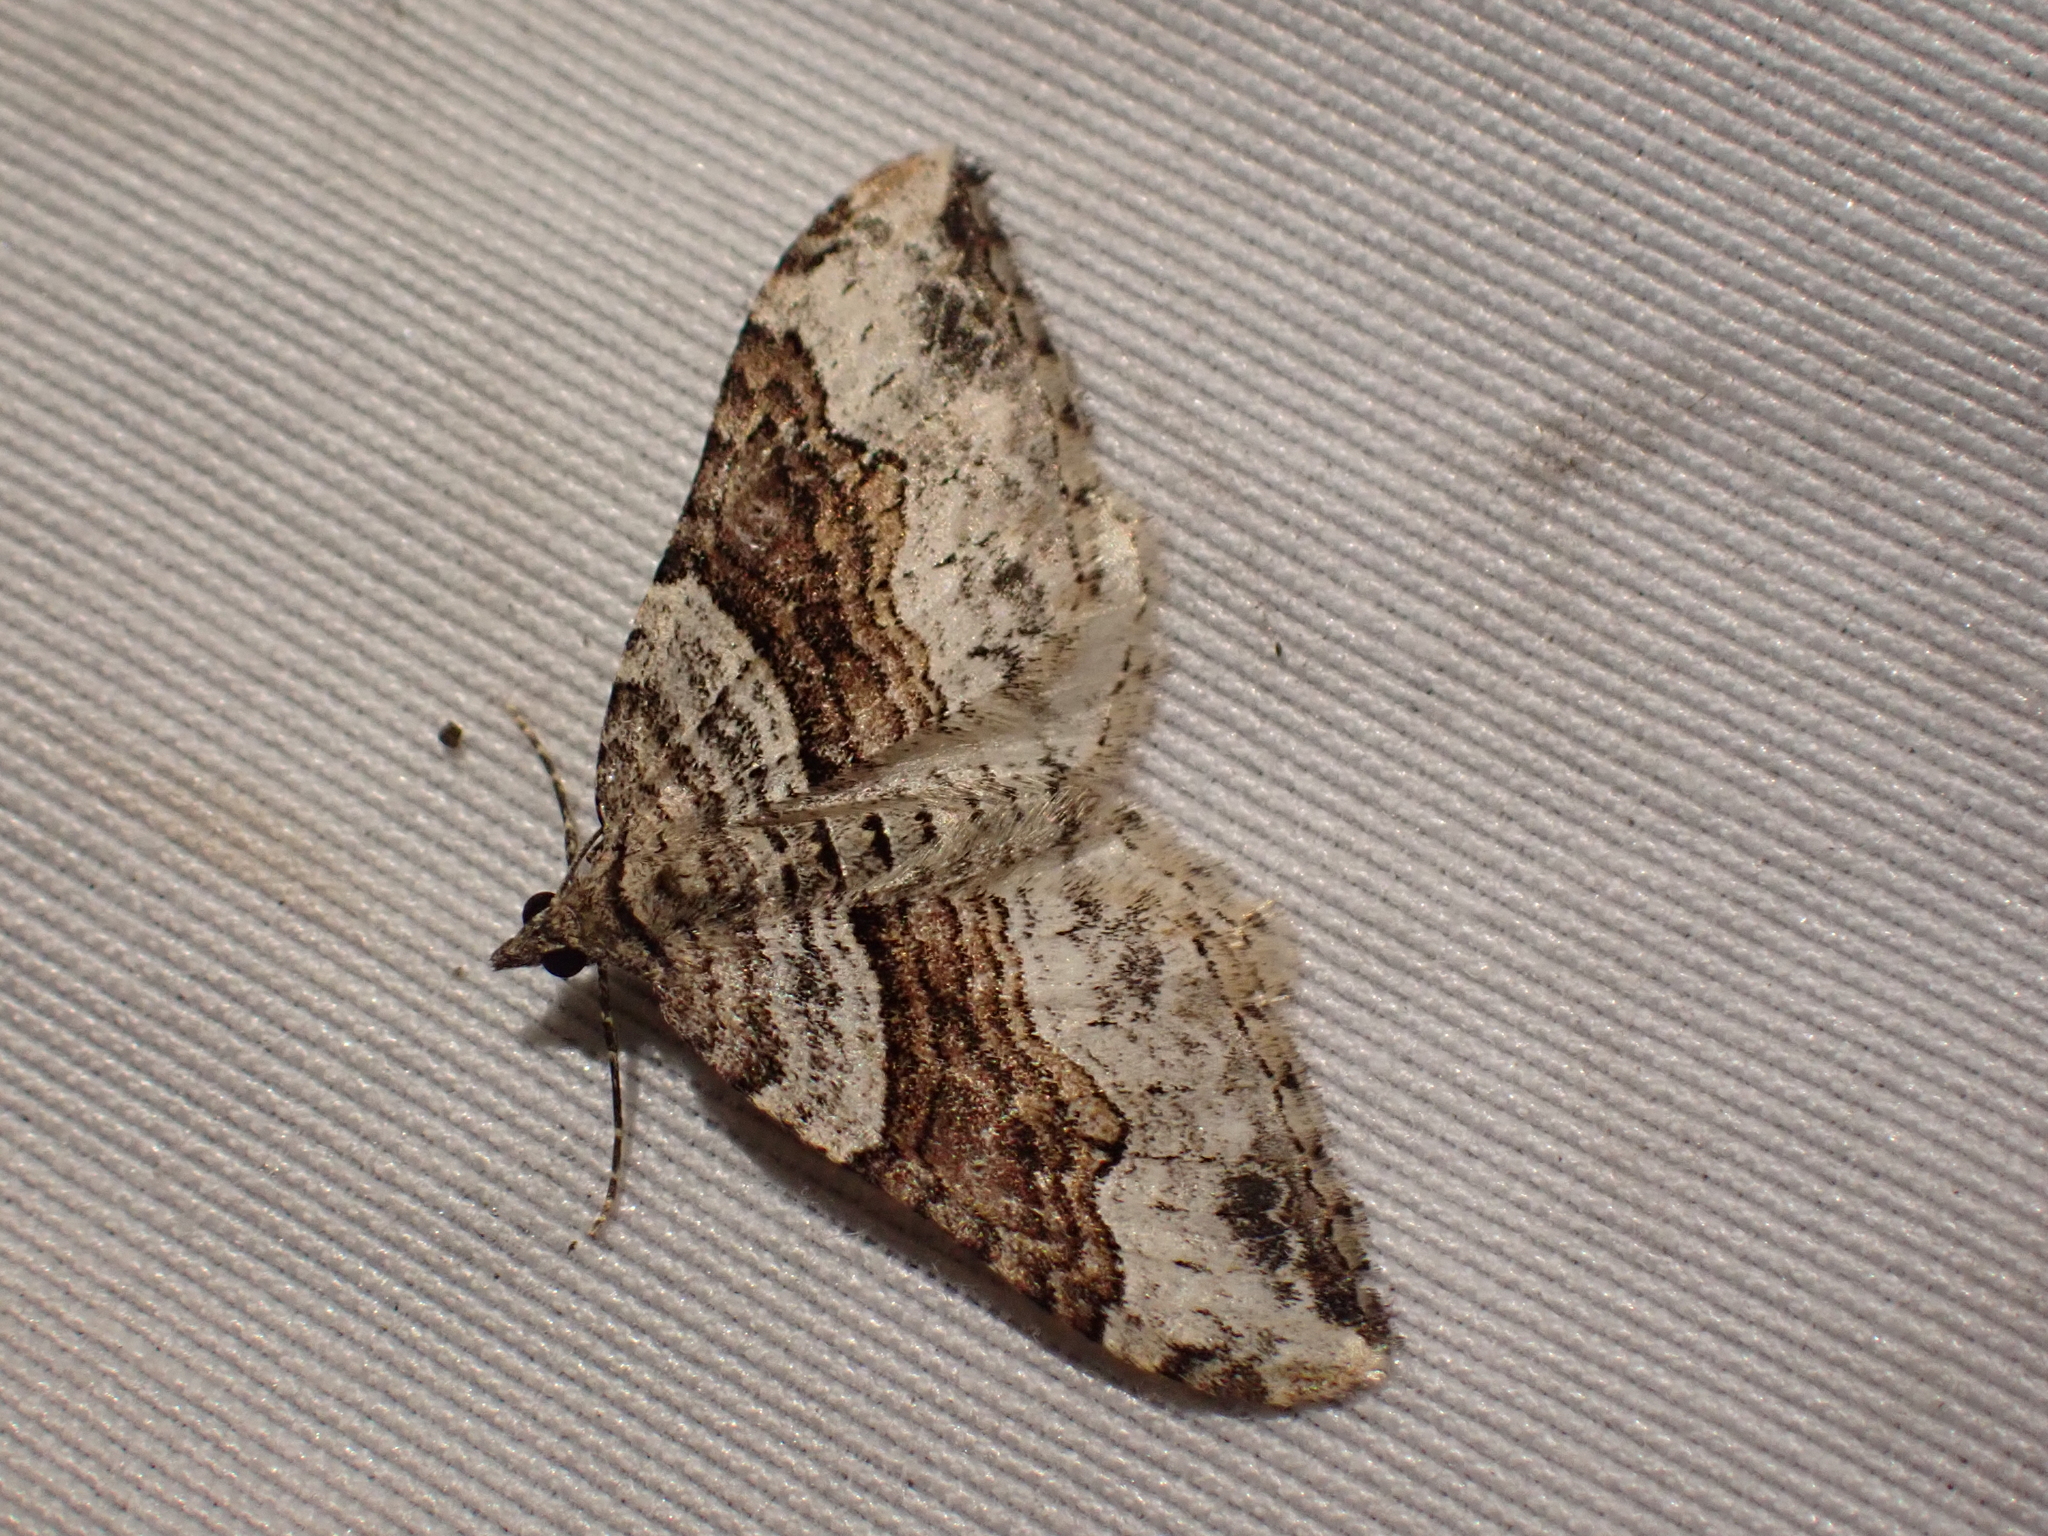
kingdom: Animalia
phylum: Arthropoda
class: Insecta
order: Lepidoptera
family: Geometridae
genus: Xanthorhoe
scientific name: Xanthorhoe defensaria
